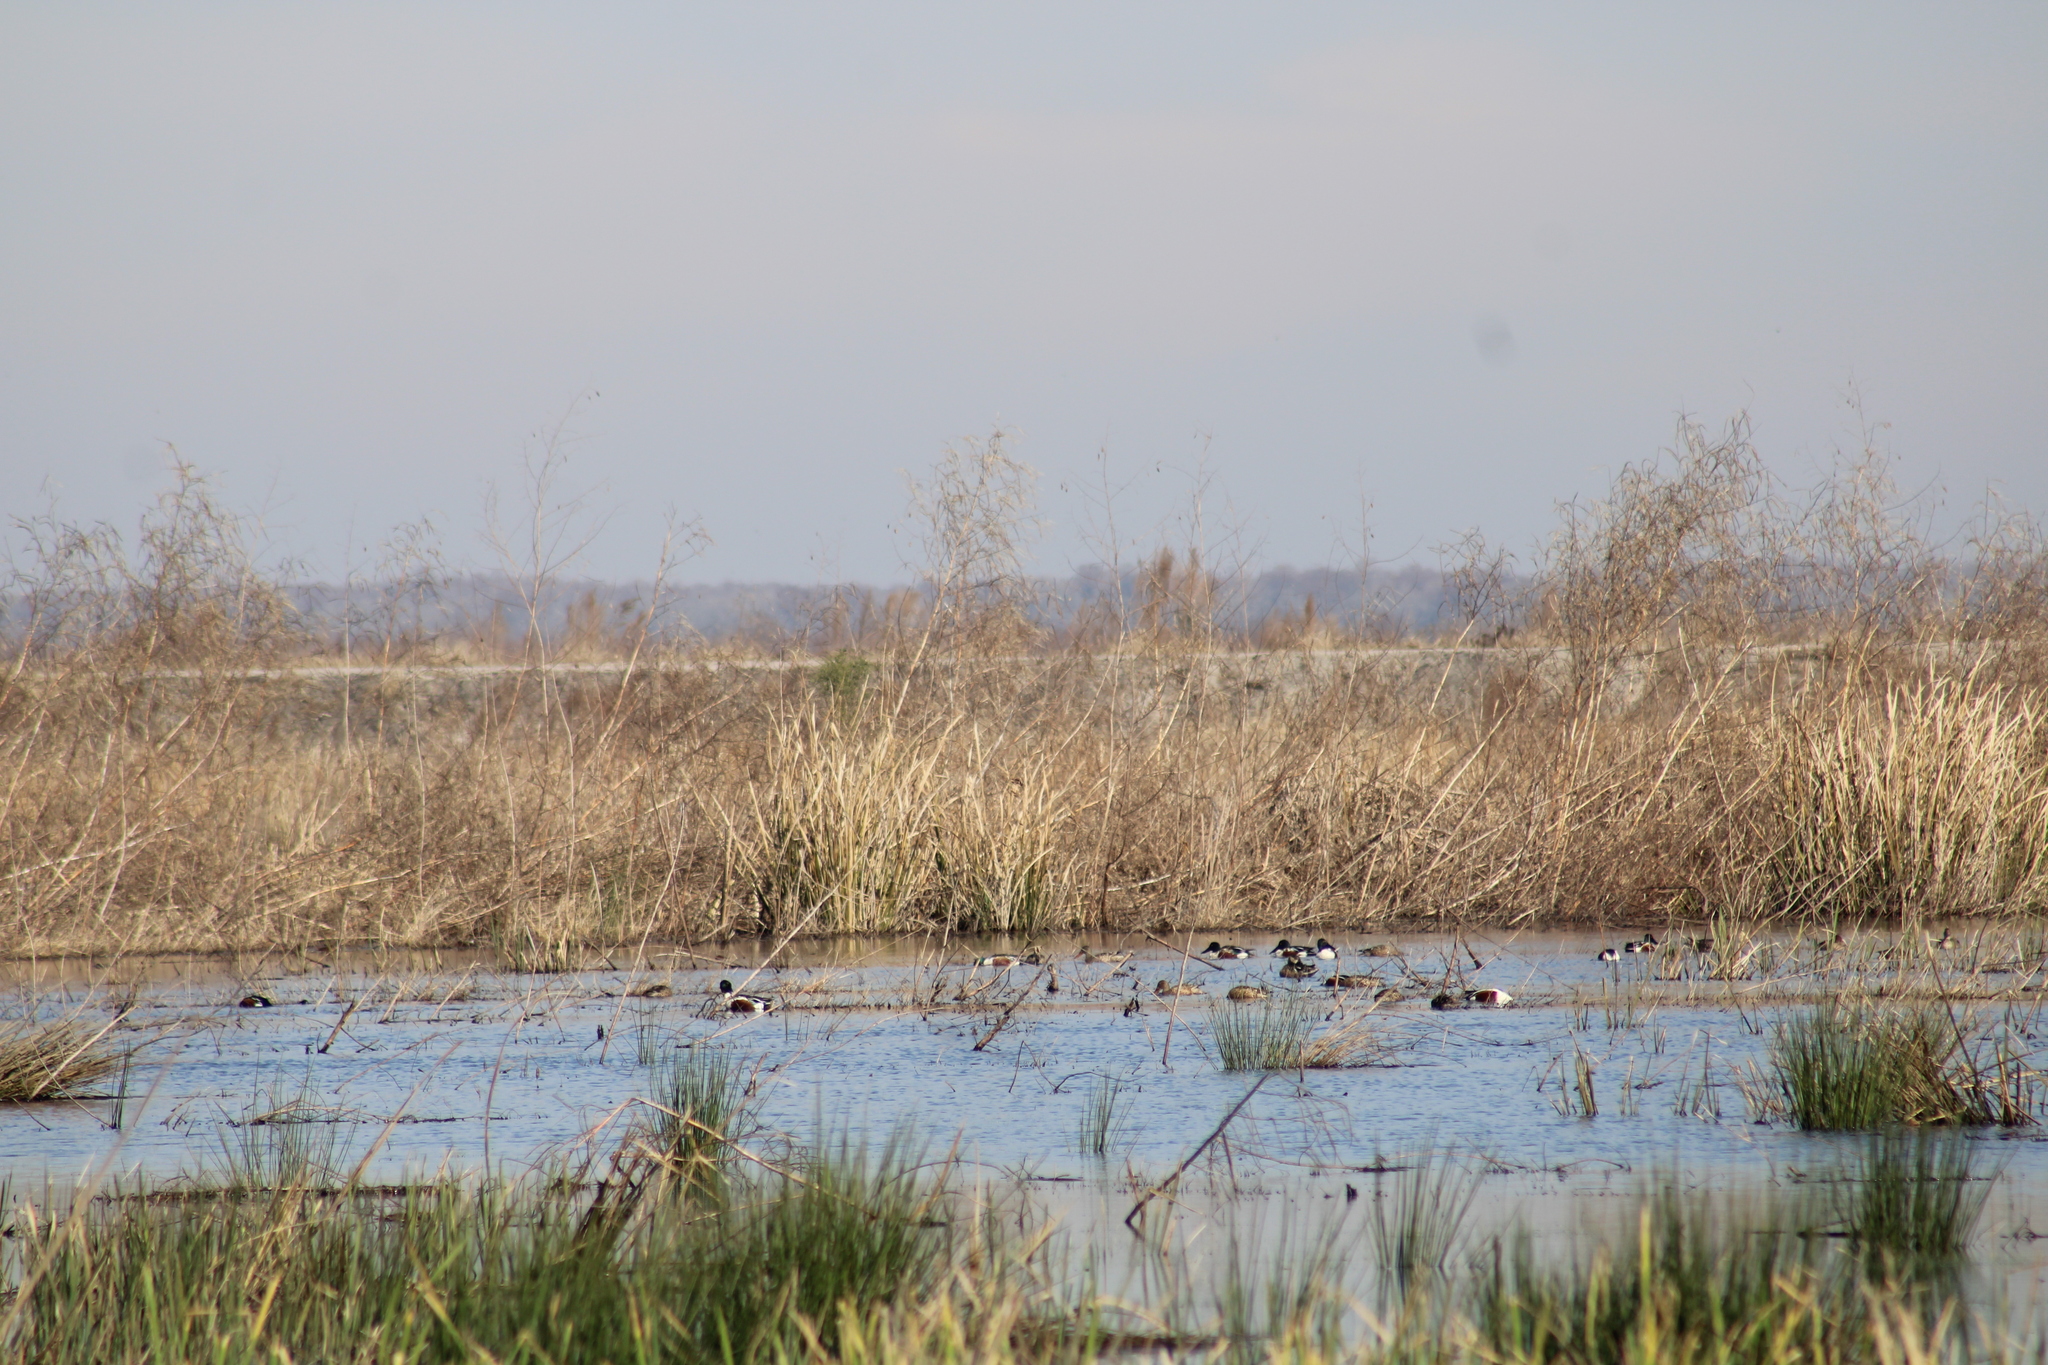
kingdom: Animalia
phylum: Chordata
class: Aves
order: Anseriformes
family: Anatidae
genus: Spatula
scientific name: Spatula clypeata
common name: Northern shoveler
